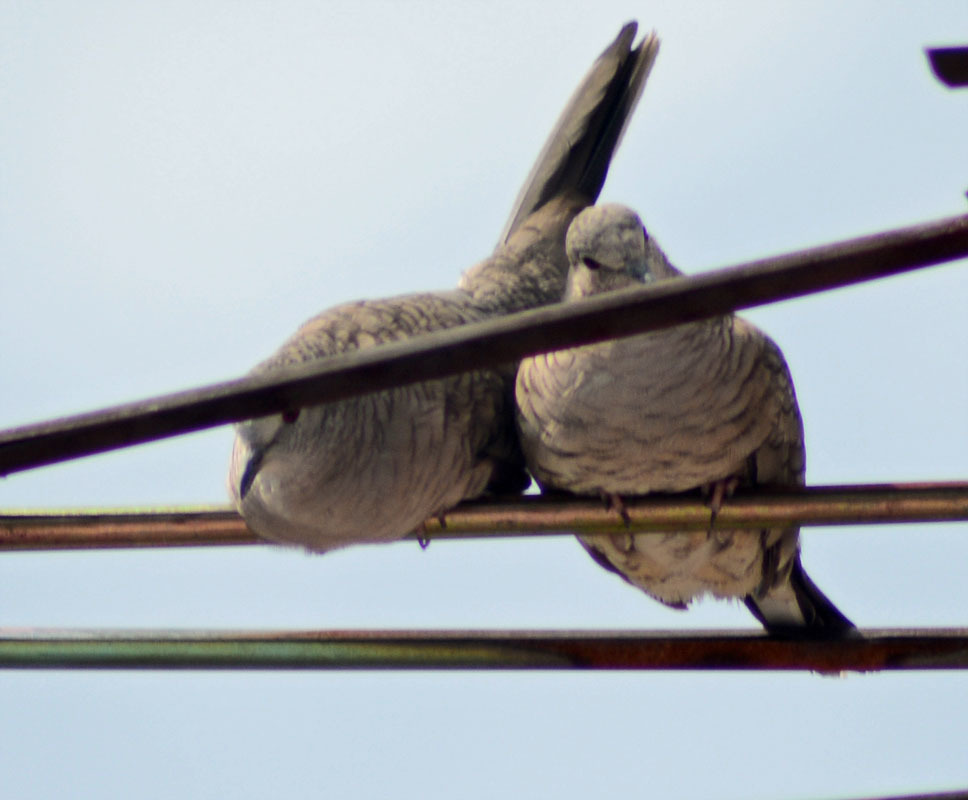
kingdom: Animalia
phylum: Chordata
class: Aves
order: Columbiformes
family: Columbidae
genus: Columbina
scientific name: Columbina inca
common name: Inca dove
